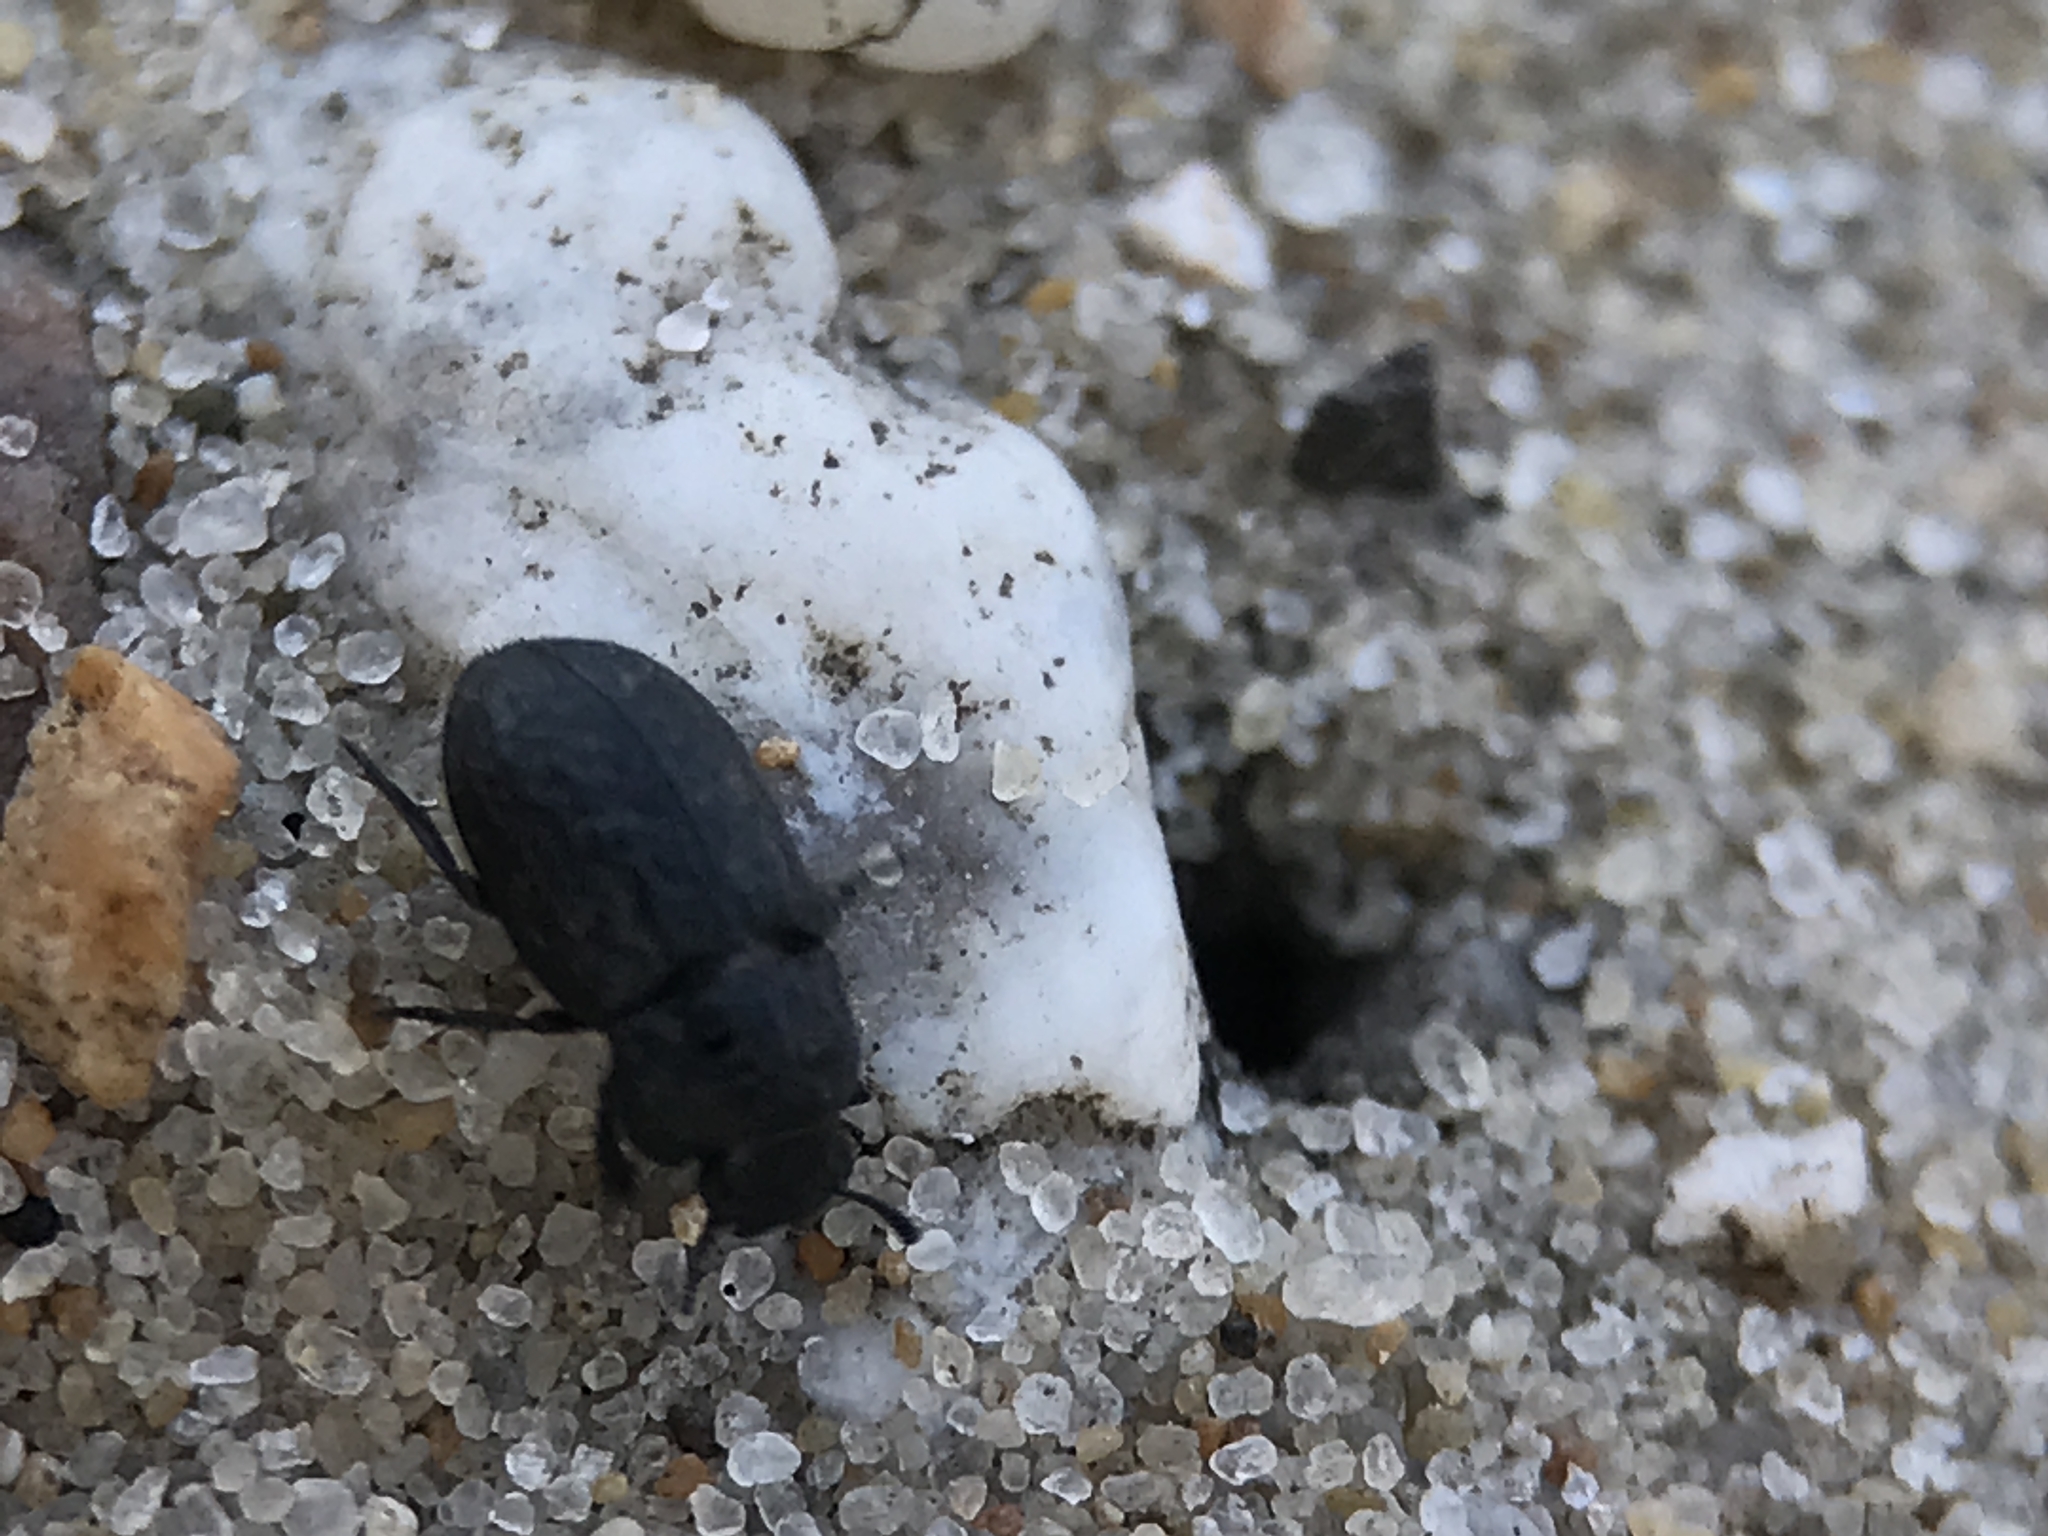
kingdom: Animalia
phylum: Arthropoda
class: Insecta
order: Coleoptera
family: Tenebrionidae
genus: Melanimon
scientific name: Melanimon tibialis
